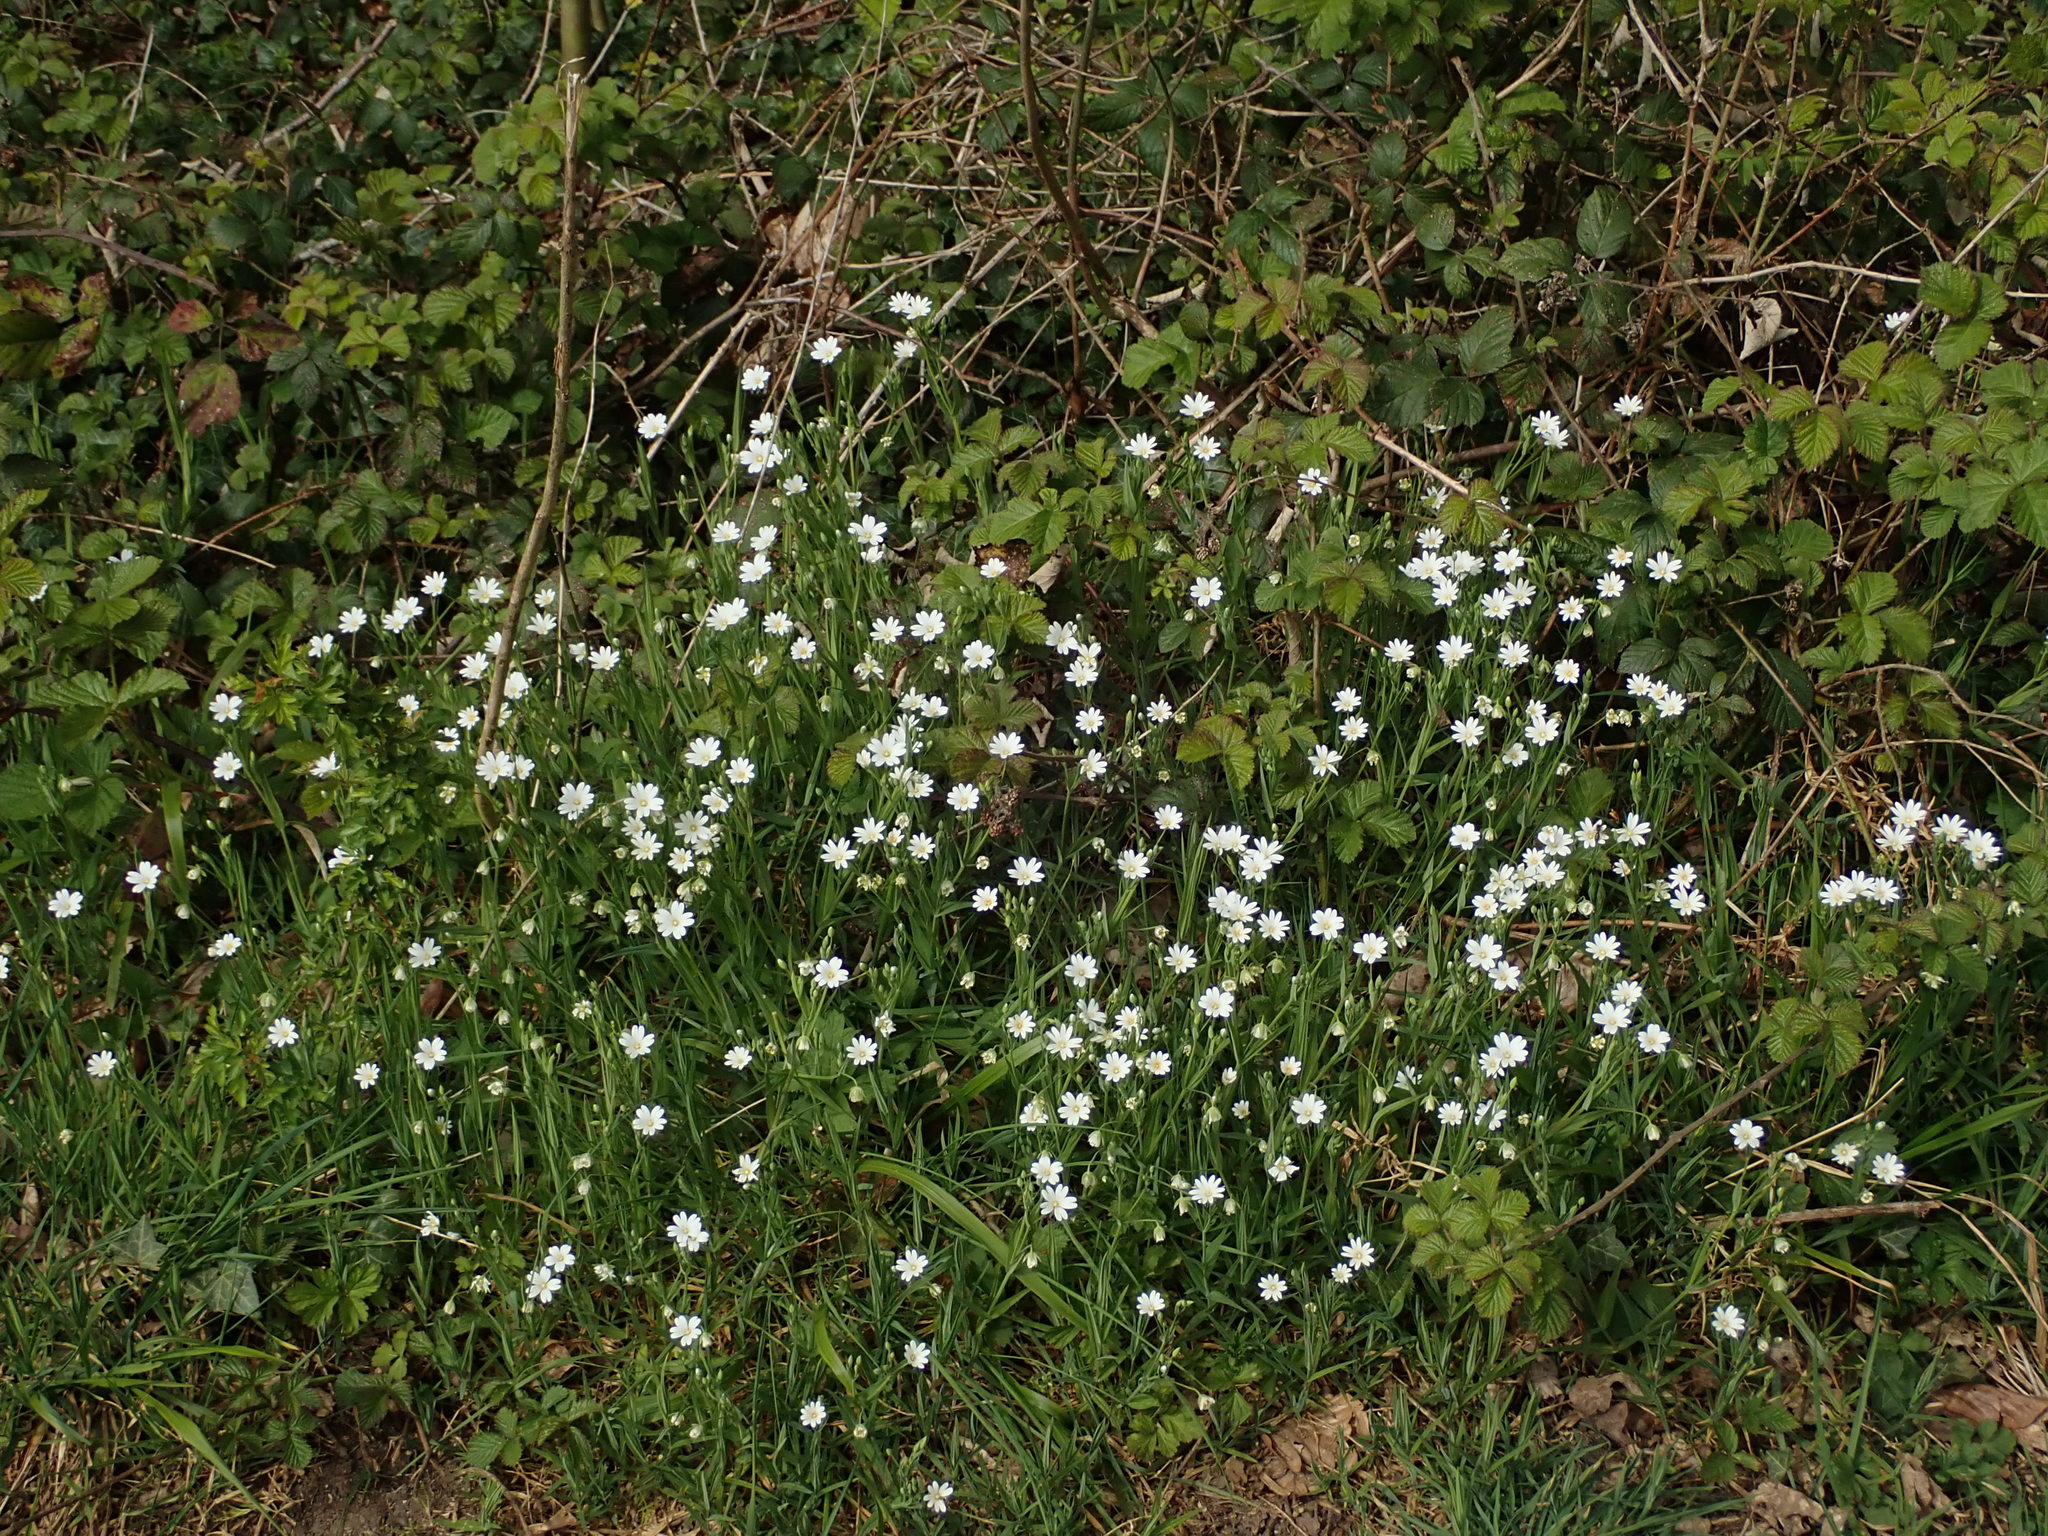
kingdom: Plantae
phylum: Tracheophyta
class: Magnoliopsida
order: Caryophyllales
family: Caryophyllaceae
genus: Rabelera
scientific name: Rabelera holostea
